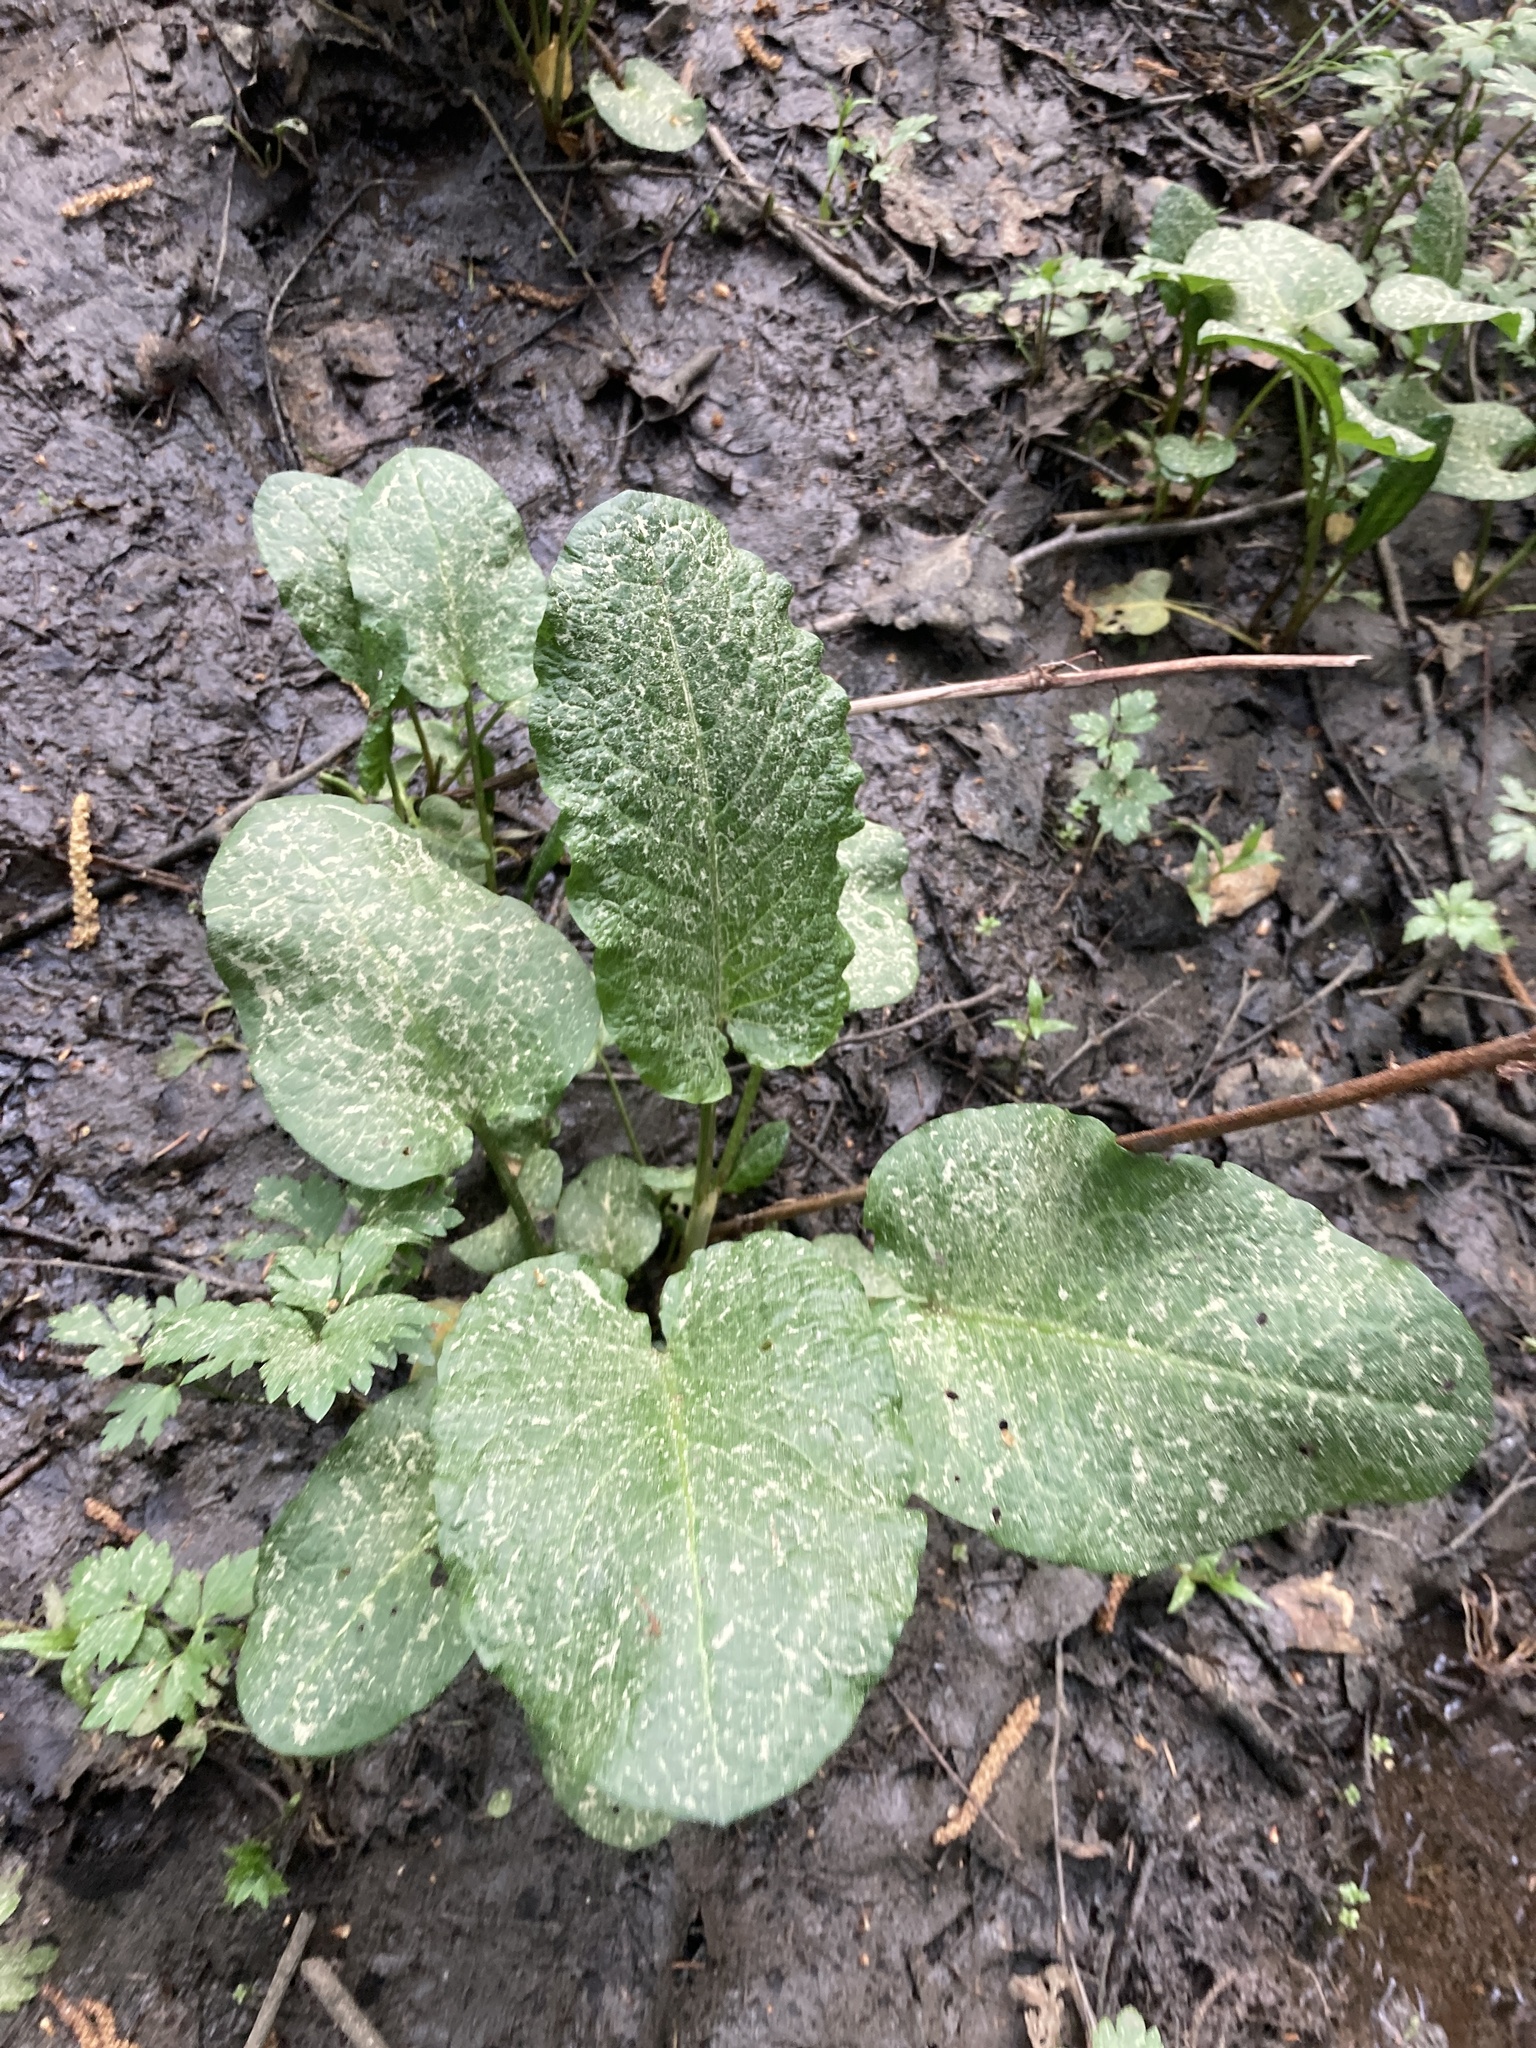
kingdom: Plantae
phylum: Tracheophyta
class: Magnoliopsida
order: Caryophyllales
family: Polygonaceae
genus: Rumex
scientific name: Rumex obtusifolius
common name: Bitter dock
